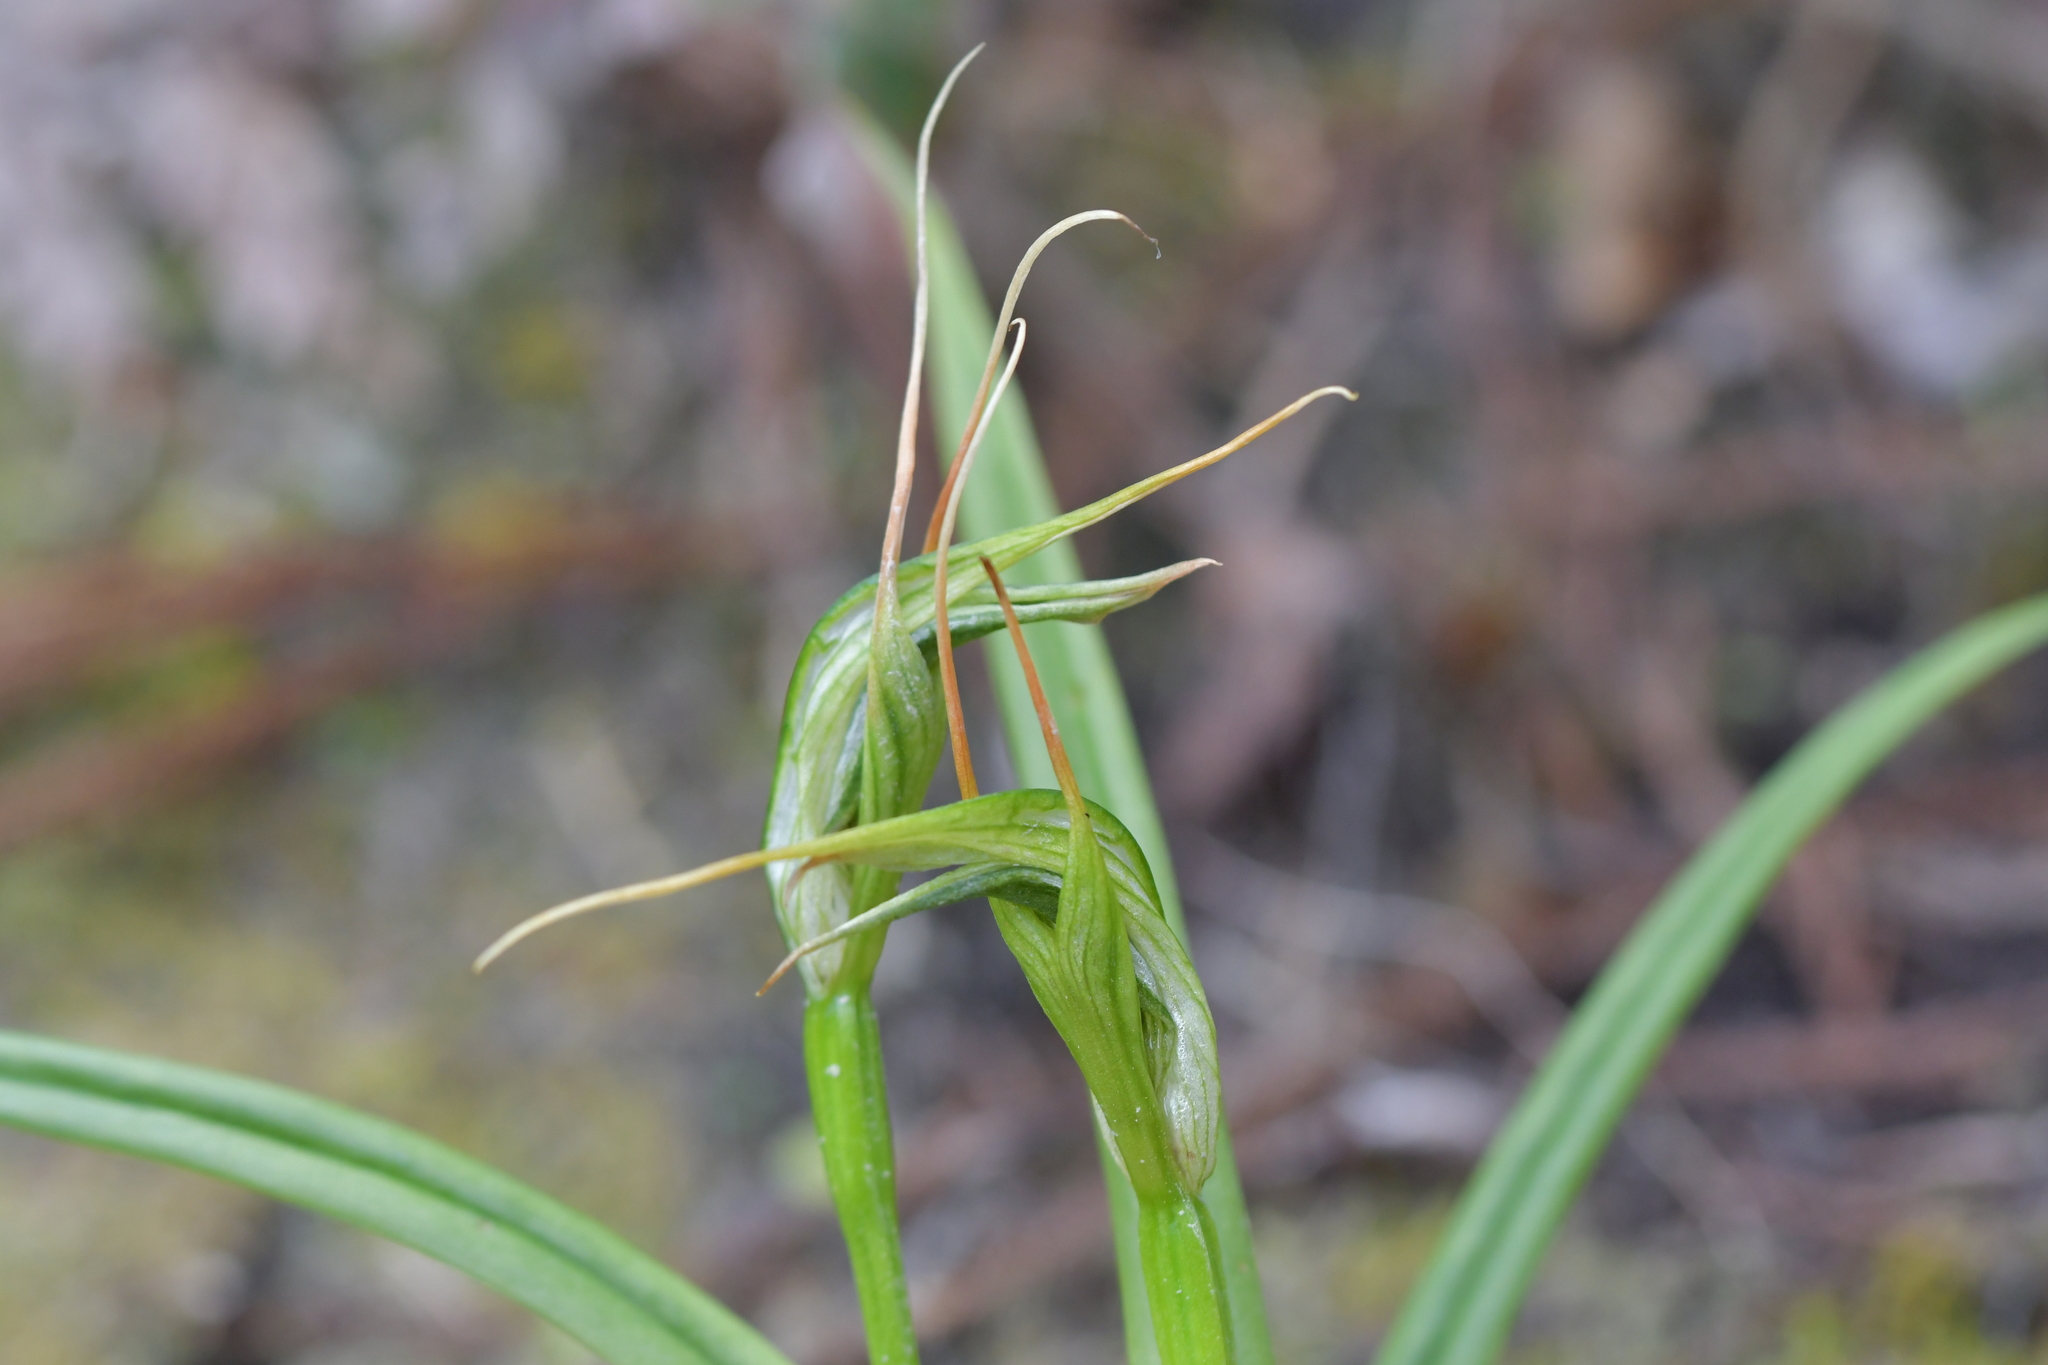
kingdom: Plantae
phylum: Tracheophyta
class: Liliopsida
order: Asparagales
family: Orchidaceae
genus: Pterostylis
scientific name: Pterostylis banksii
